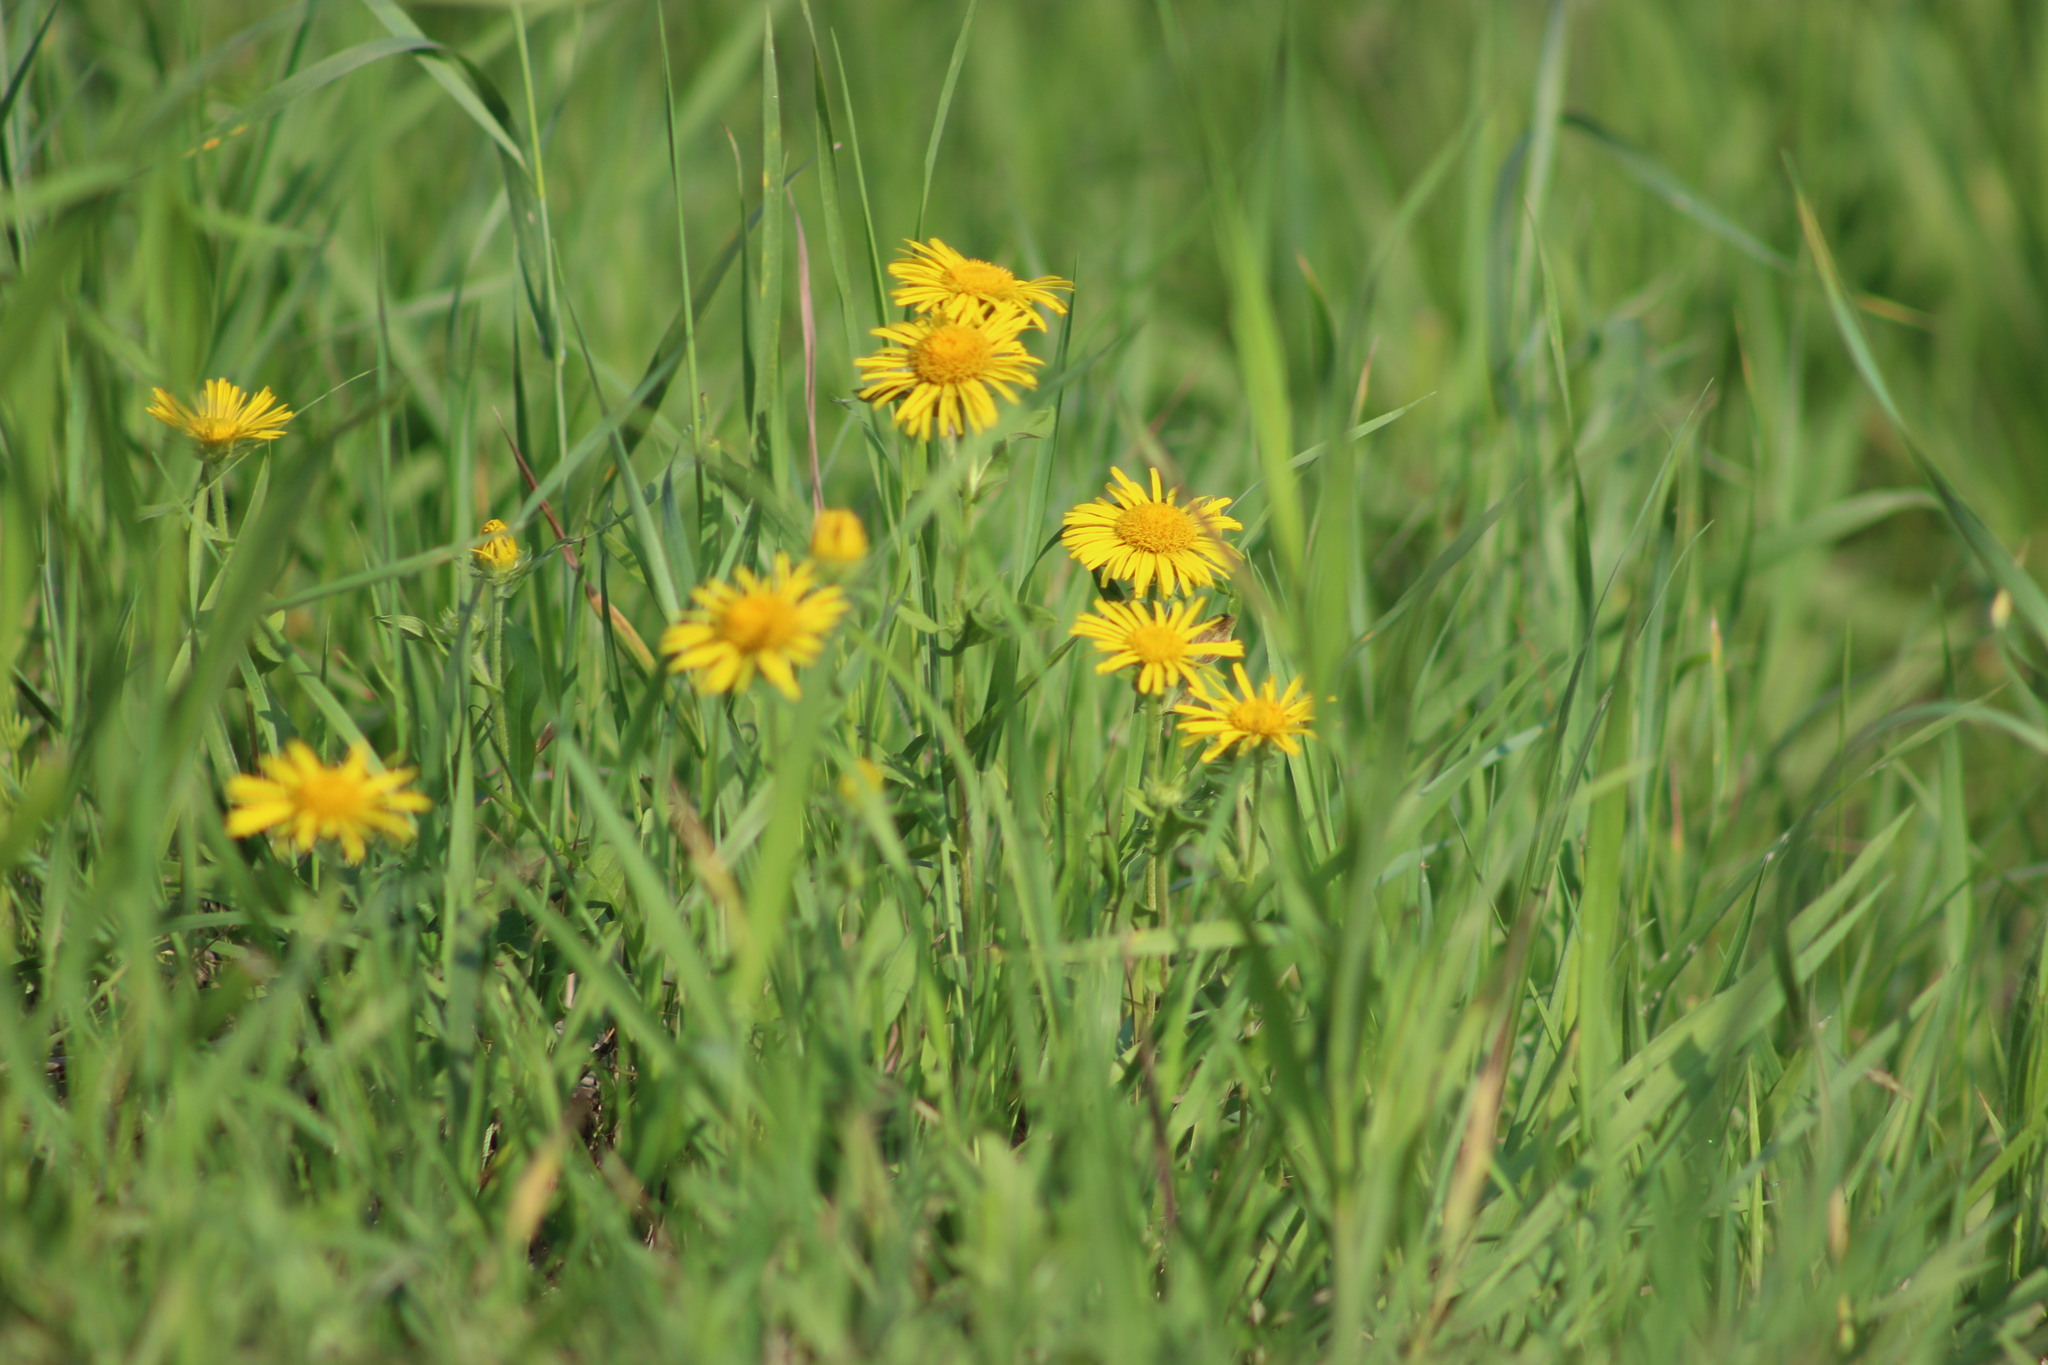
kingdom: Plantae
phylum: Tracheophyta
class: Magnoliopsida
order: Asterales
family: Asteraceae
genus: Pentanema
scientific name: Pentanema britannicum
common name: British elecampane
